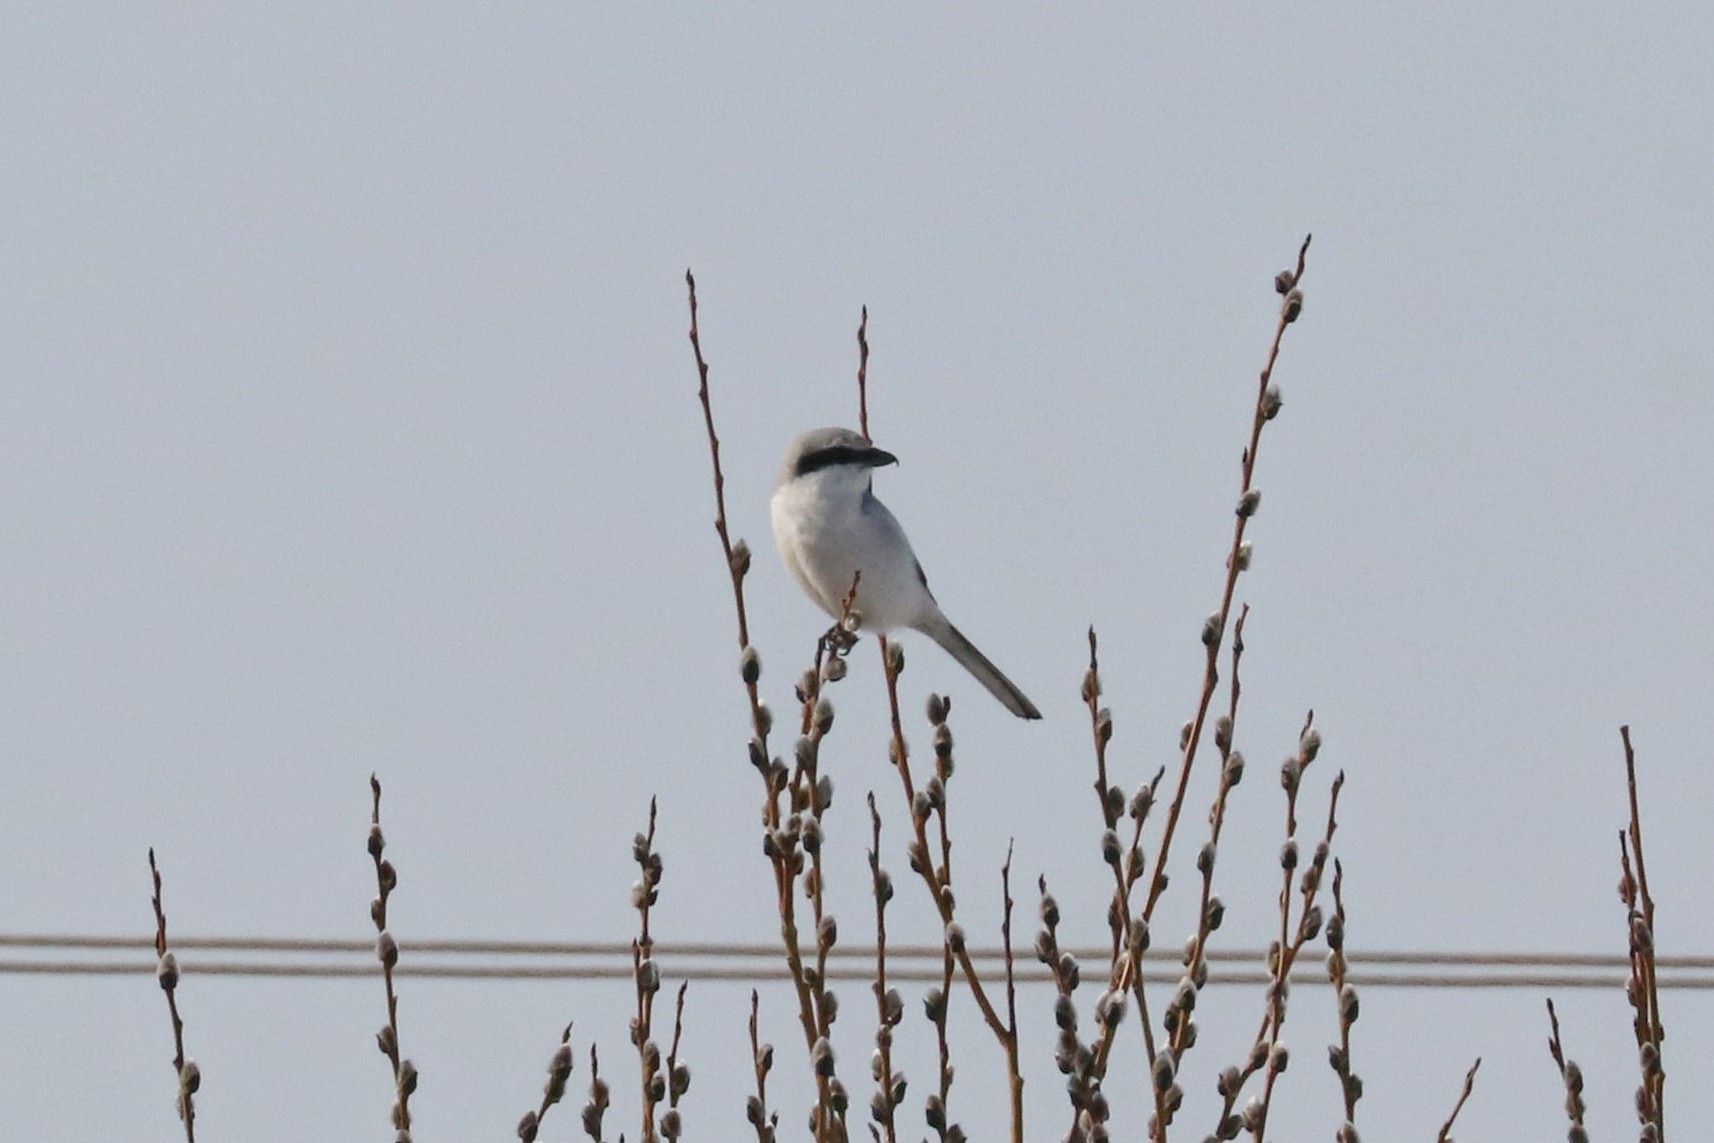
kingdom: Animalia
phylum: Chordata
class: Aves
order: Passeriformes
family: Laniidae
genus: Lanius
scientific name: Lanius excubitor
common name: Great grey shrike
